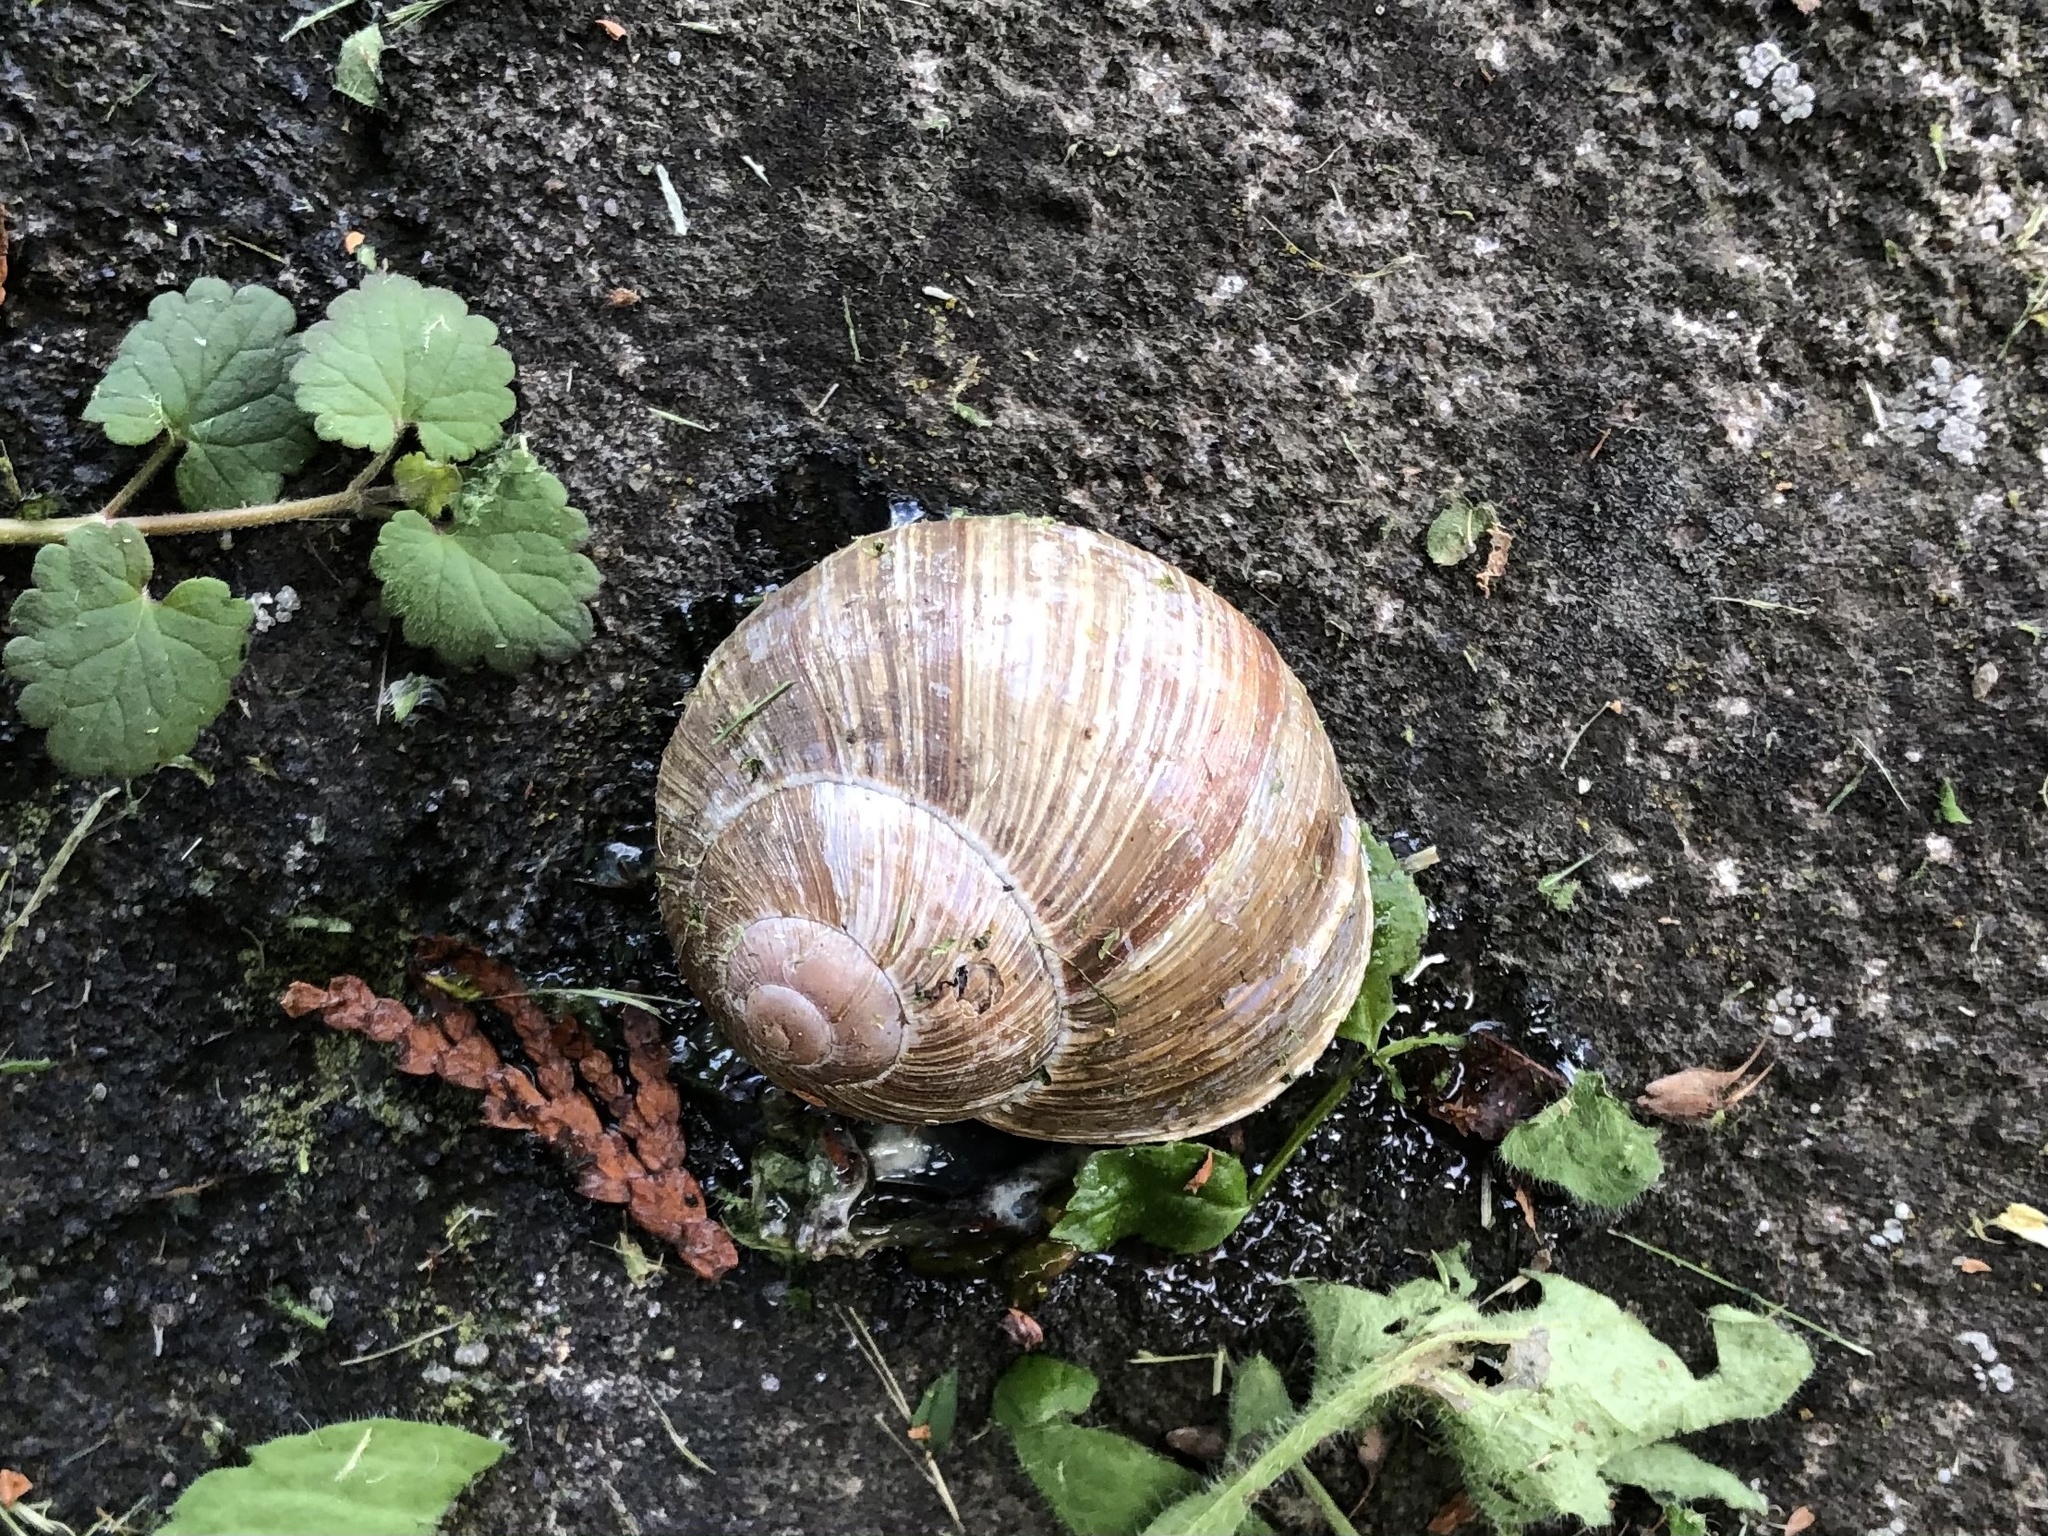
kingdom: Animalia
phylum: Mollusca
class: Gastropoda
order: Stylommatophora
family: Helicidae
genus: Helix
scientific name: Helix pomatia
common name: Roman snail
